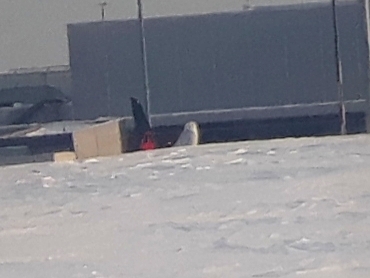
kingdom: Animalia
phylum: Chordata
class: Aves
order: Strigiformes
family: Strigidae
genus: Bubo
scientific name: Bubo scandiacus
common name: Snowy owl
